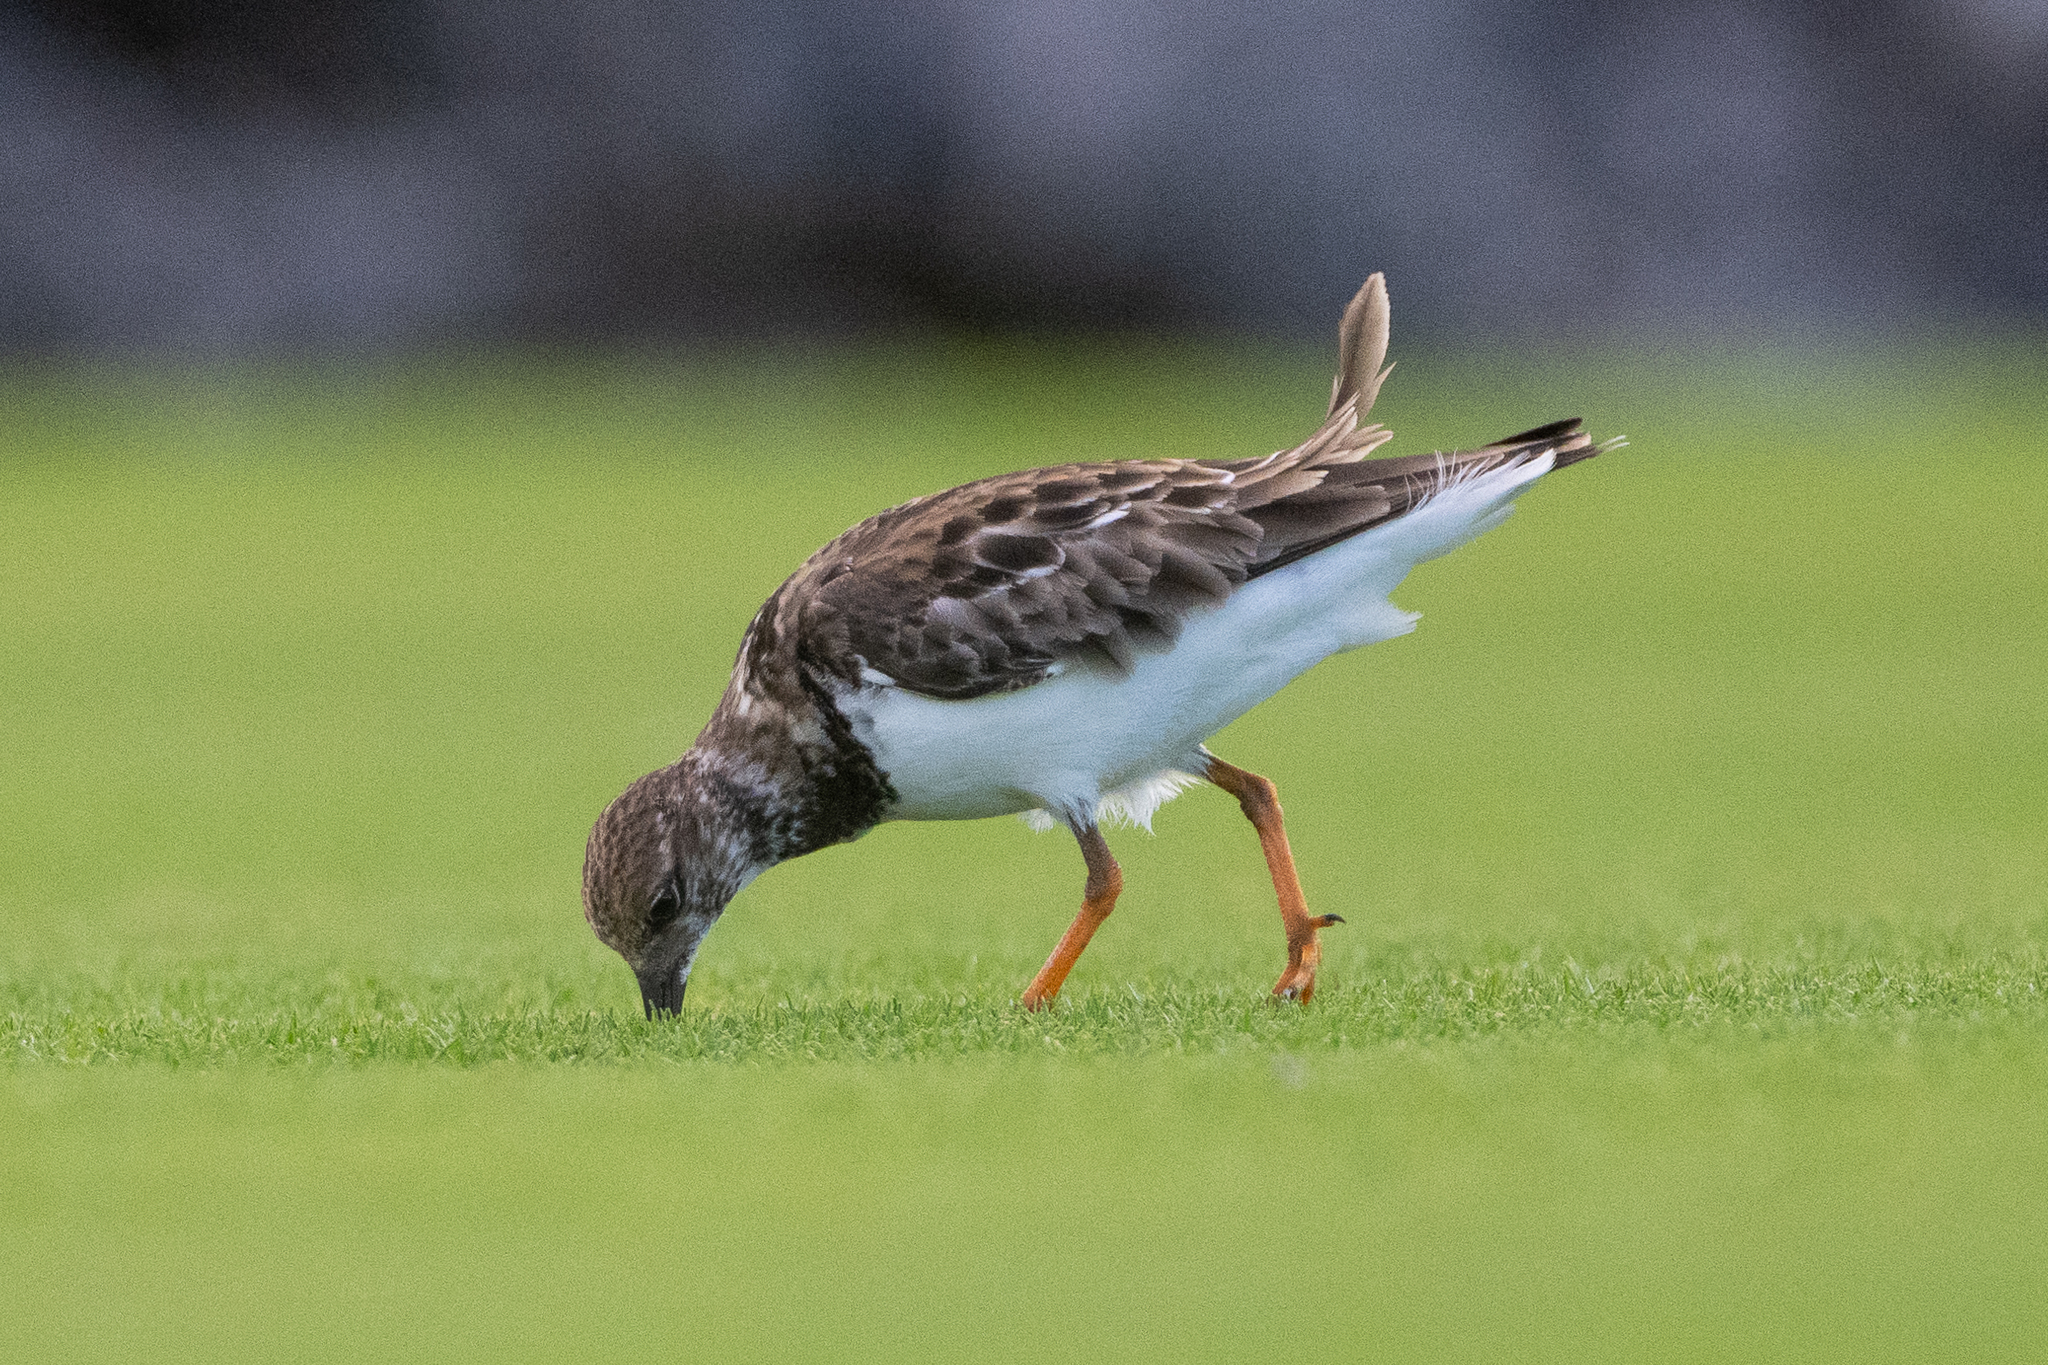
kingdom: Animalia
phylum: Chordata
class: Aves
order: Charadriiformes
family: Scolopacidae
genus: Arenaria
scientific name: Arenaria interpres
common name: Ruddy turnstone
